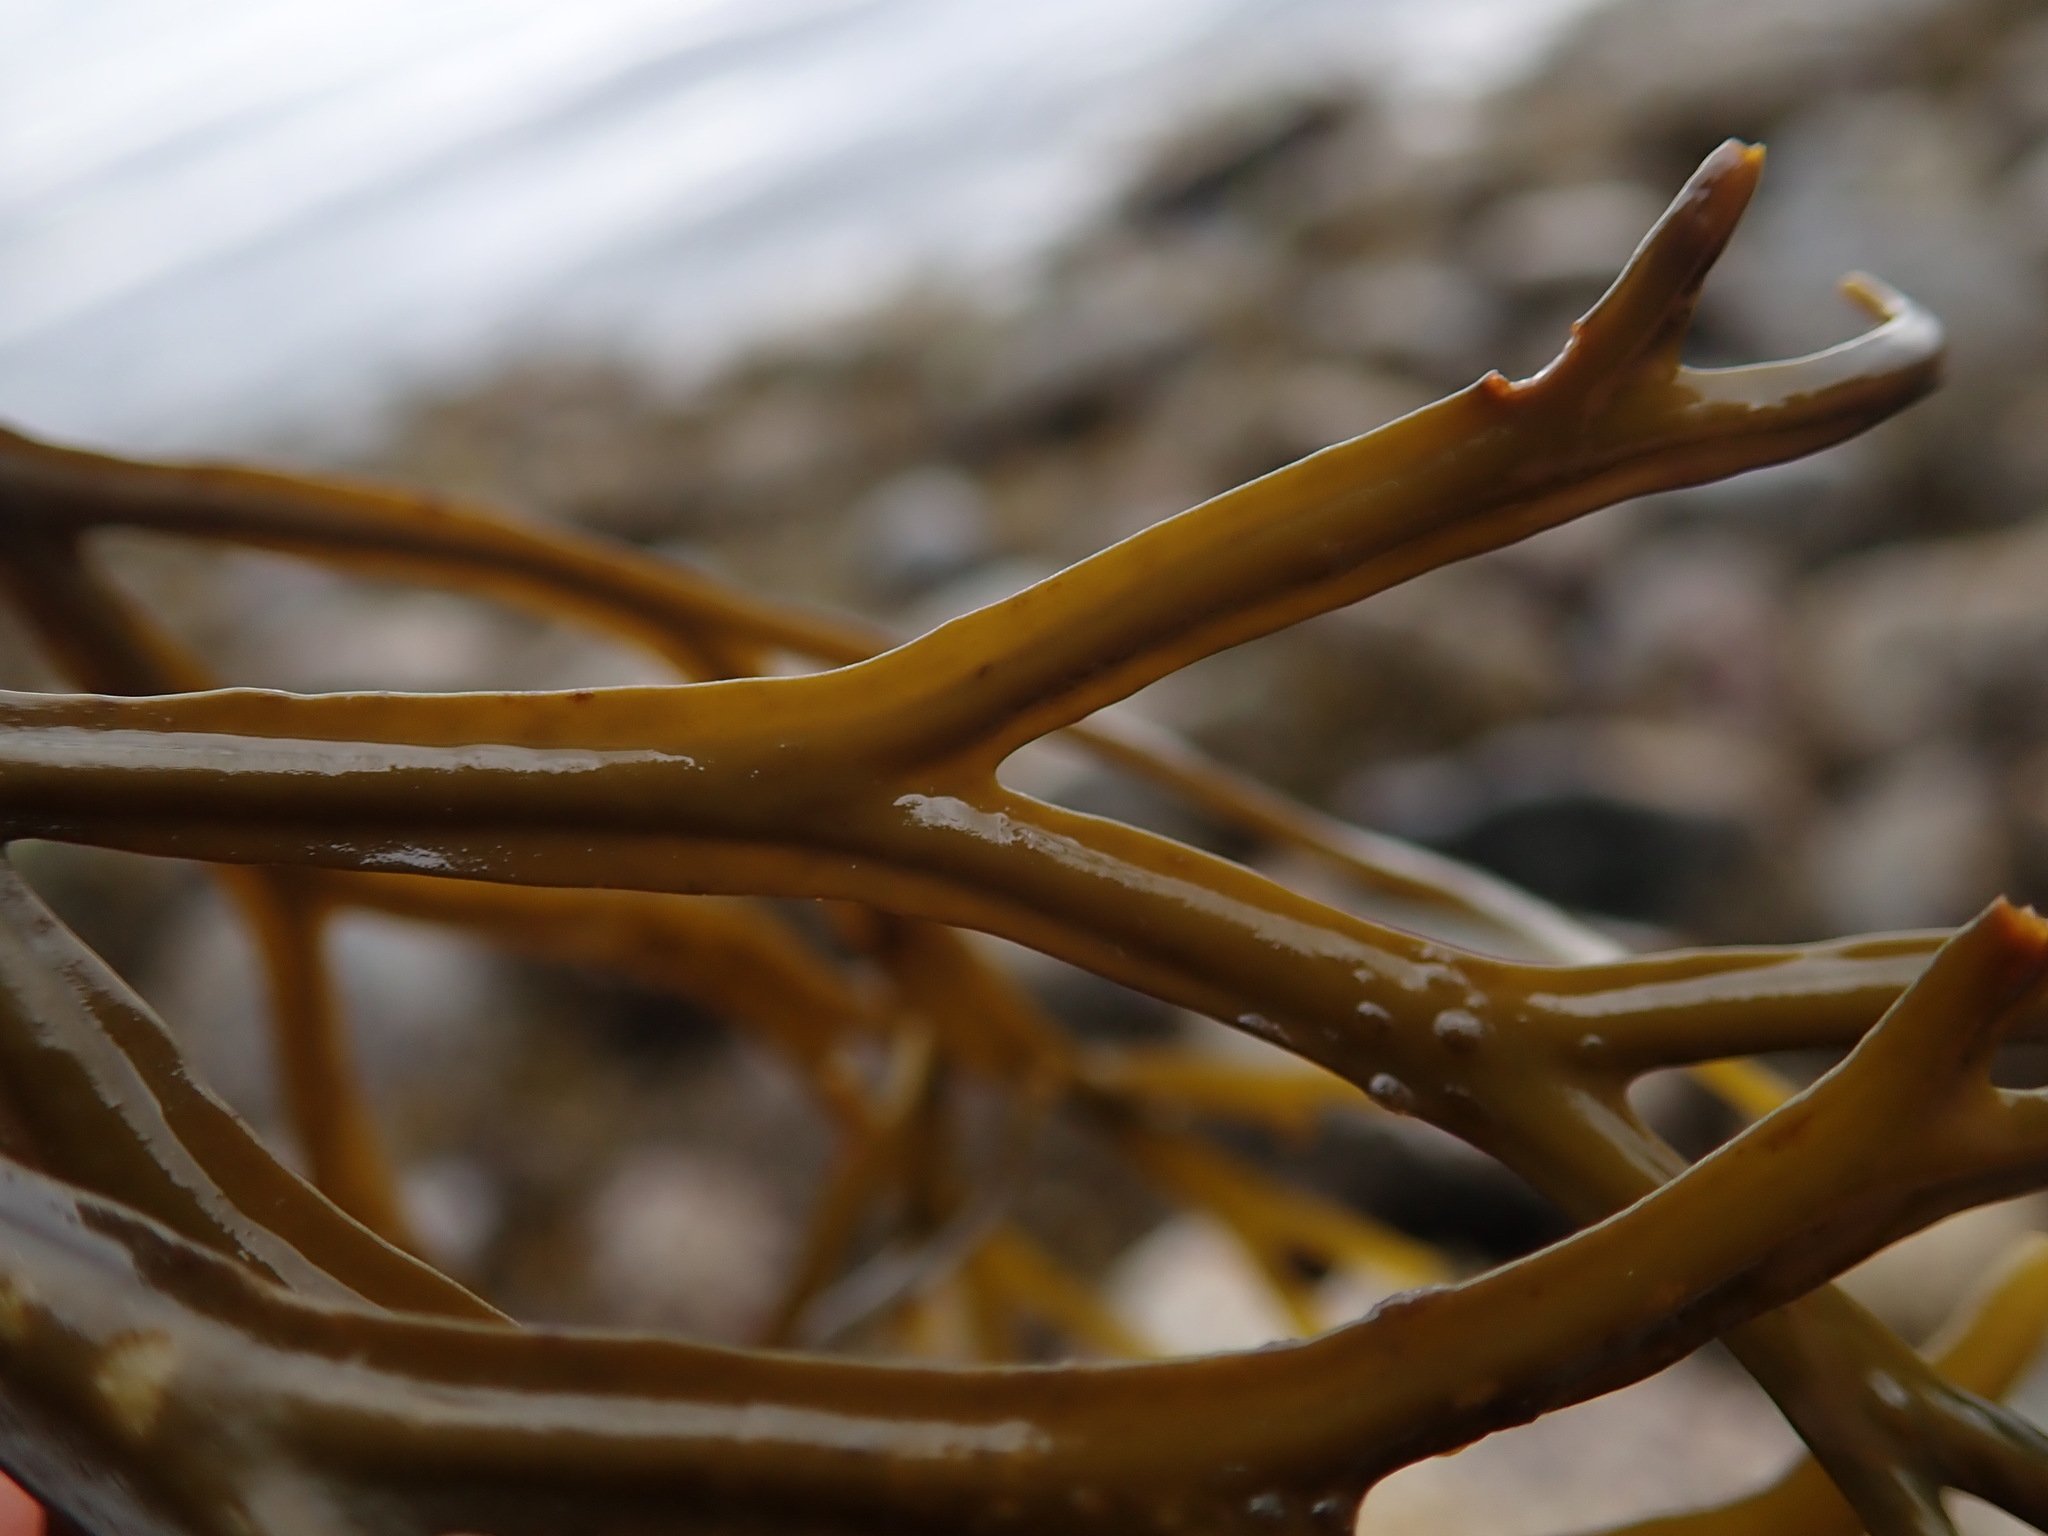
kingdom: Chromista
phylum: Ochrophyta
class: Phaeophyceae
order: Fucales
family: Fucaceae
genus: Fucus
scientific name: Fucus distichus
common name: Rockweed
